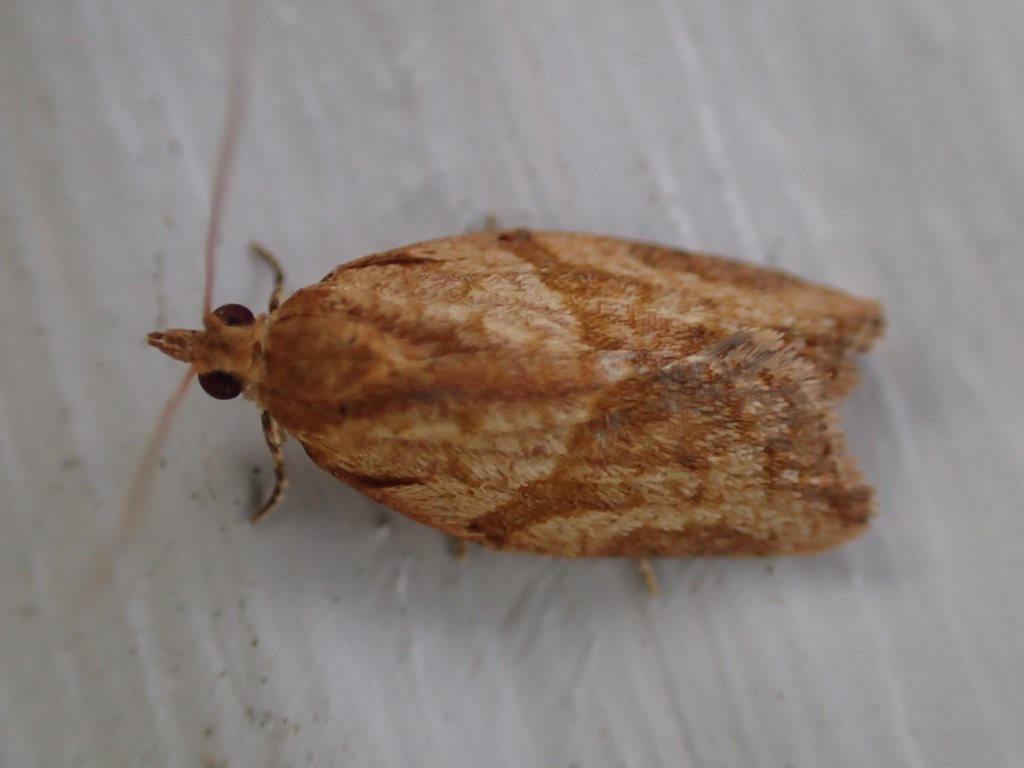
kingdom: Animalia
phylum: Arthropoda
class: Insecta
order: Lepidoptera
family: Tortricidae
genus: Epiphyas
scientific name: Epiphyas postvittana
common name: Light brown apple moth
